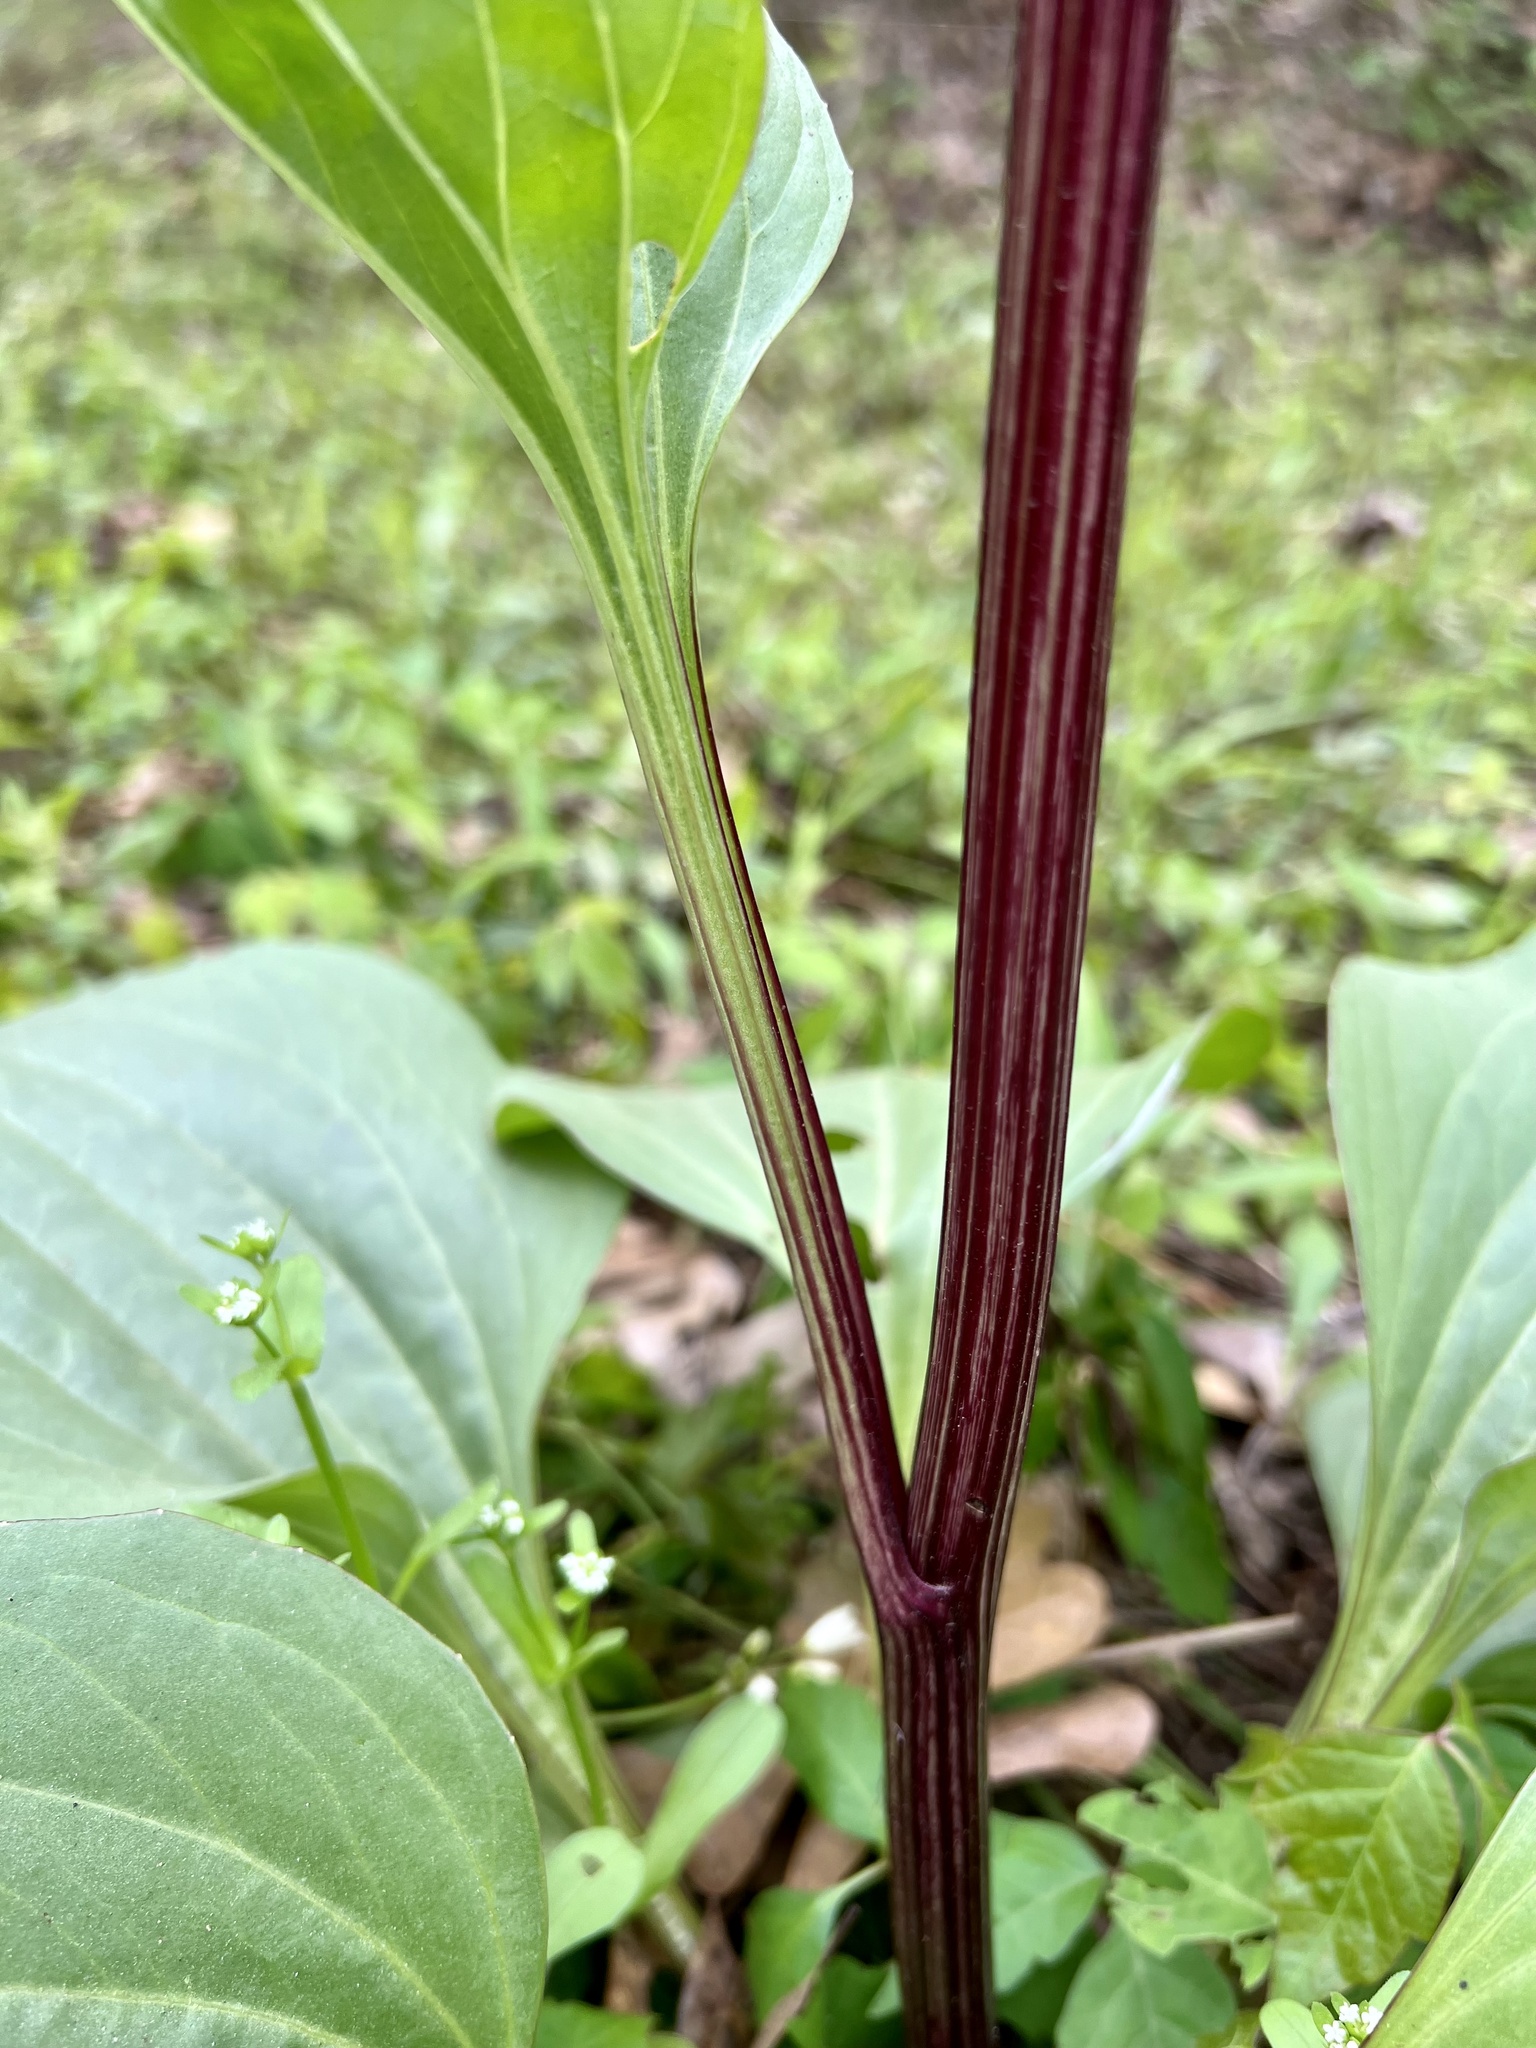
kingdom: Plantae
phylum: Tracheophyta
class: Magnoliopsida
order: Asterales
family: Asteraceae
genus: Arnoglossum
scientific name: Arnoglossum plantagineum
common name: Groove-stemmed indian-plantain
